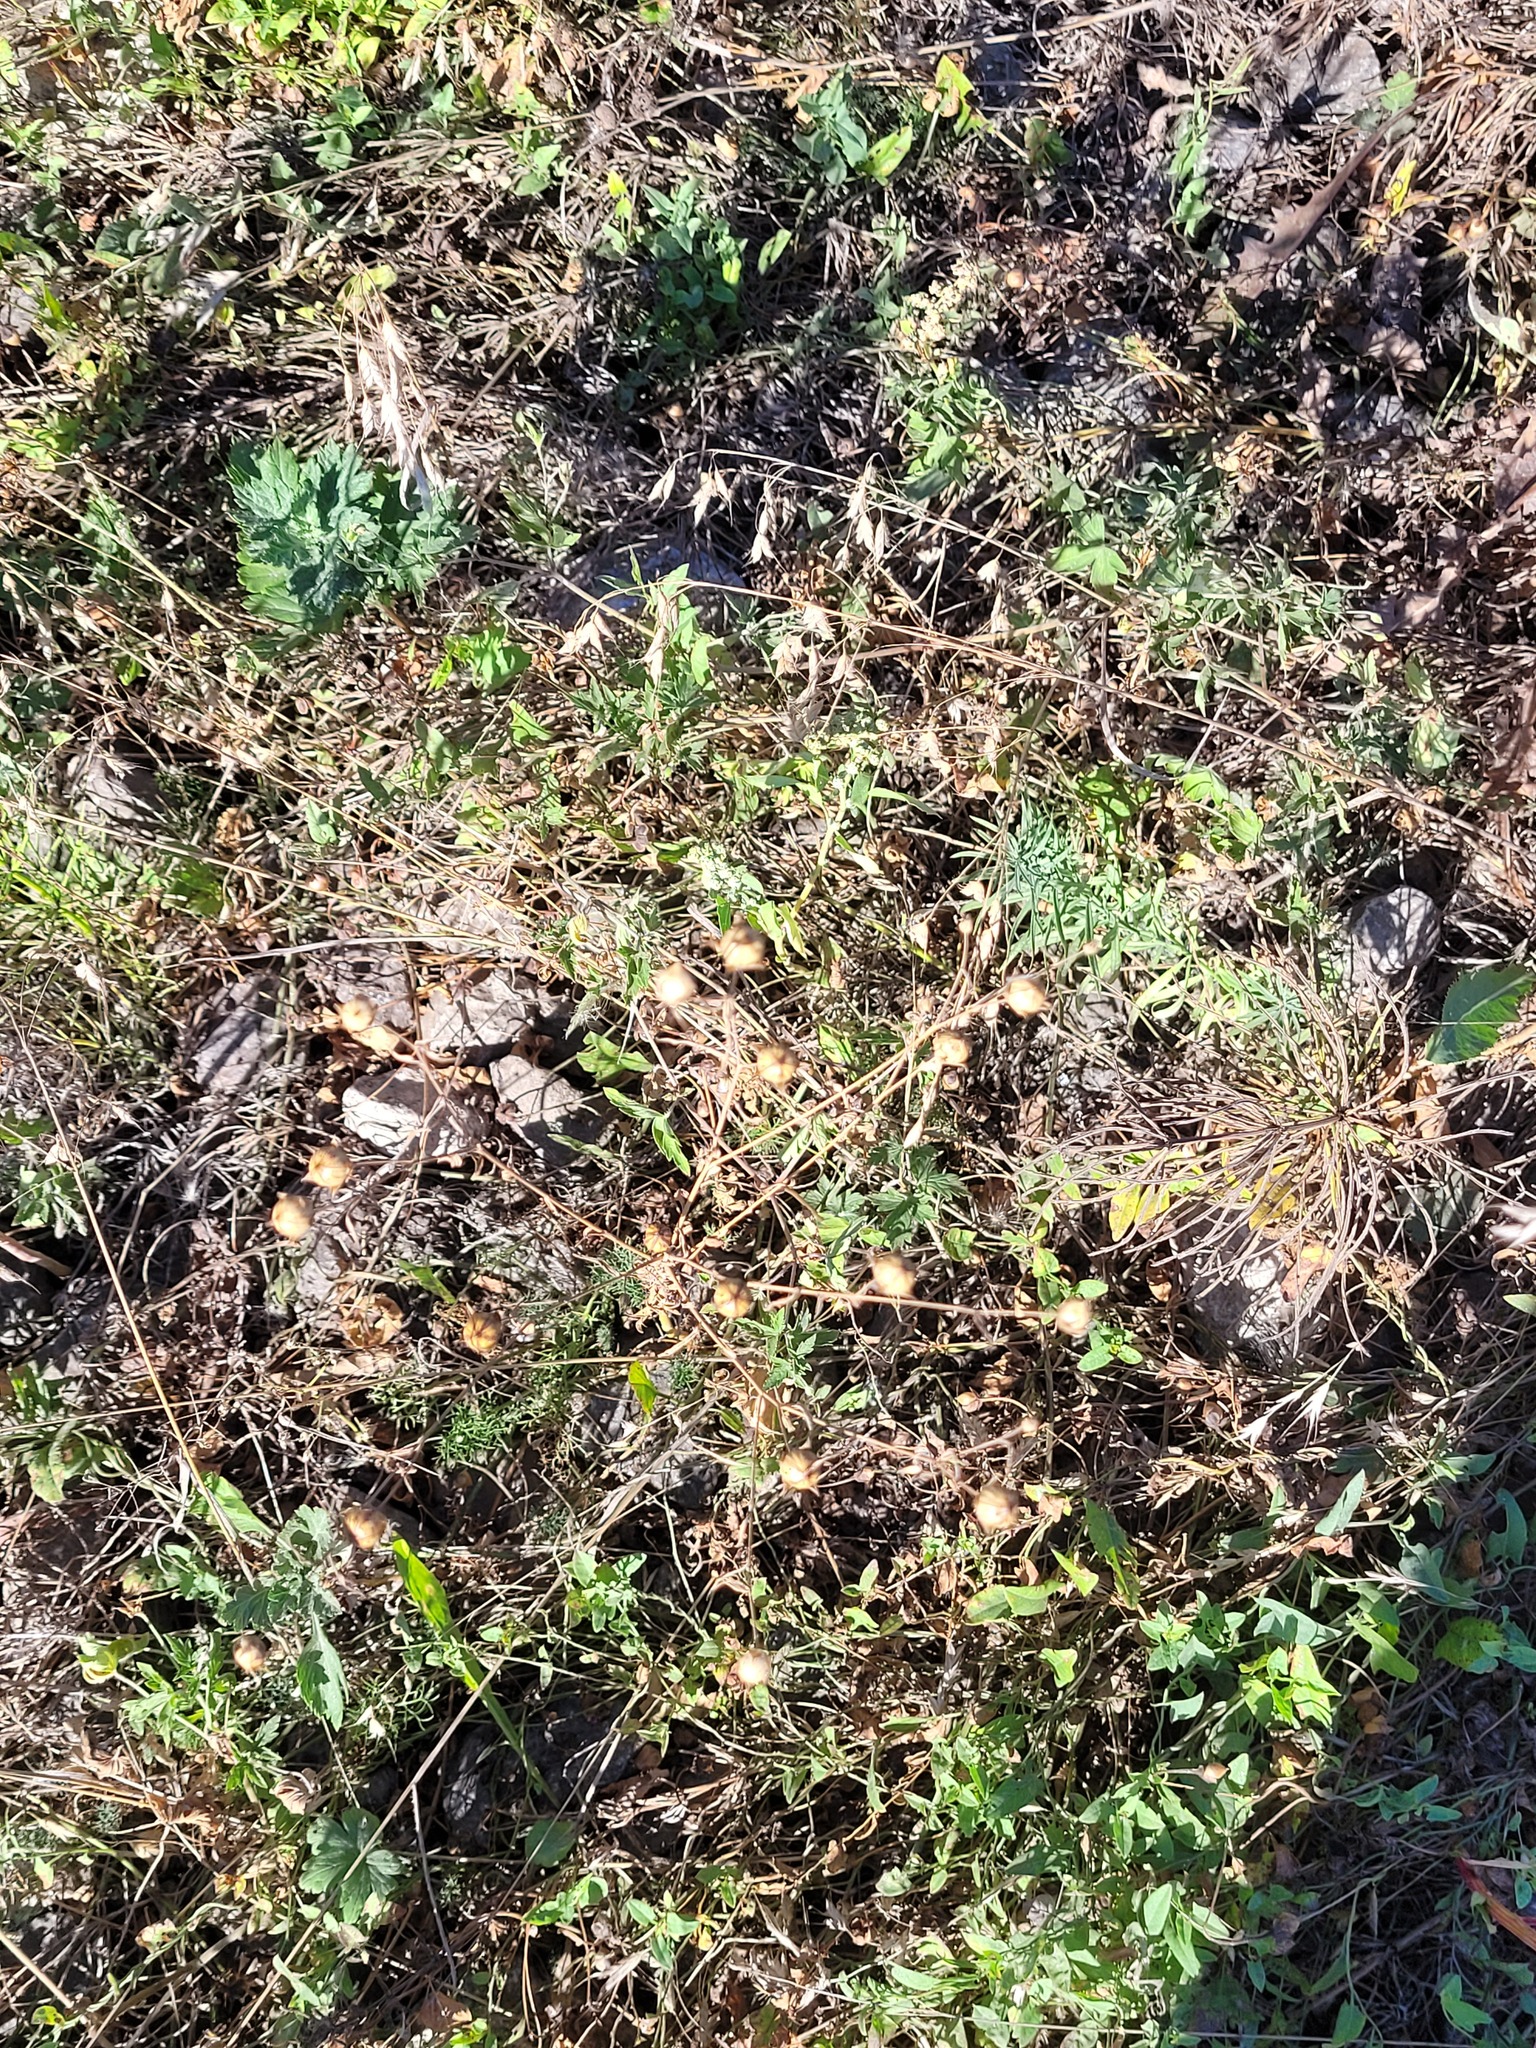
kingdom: Plantae
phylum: Tracheophyta
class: Magnoliopsida
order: Malpighiales
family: Linaceae
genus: Linum
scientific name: Linum usitatissimum
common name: Flax
